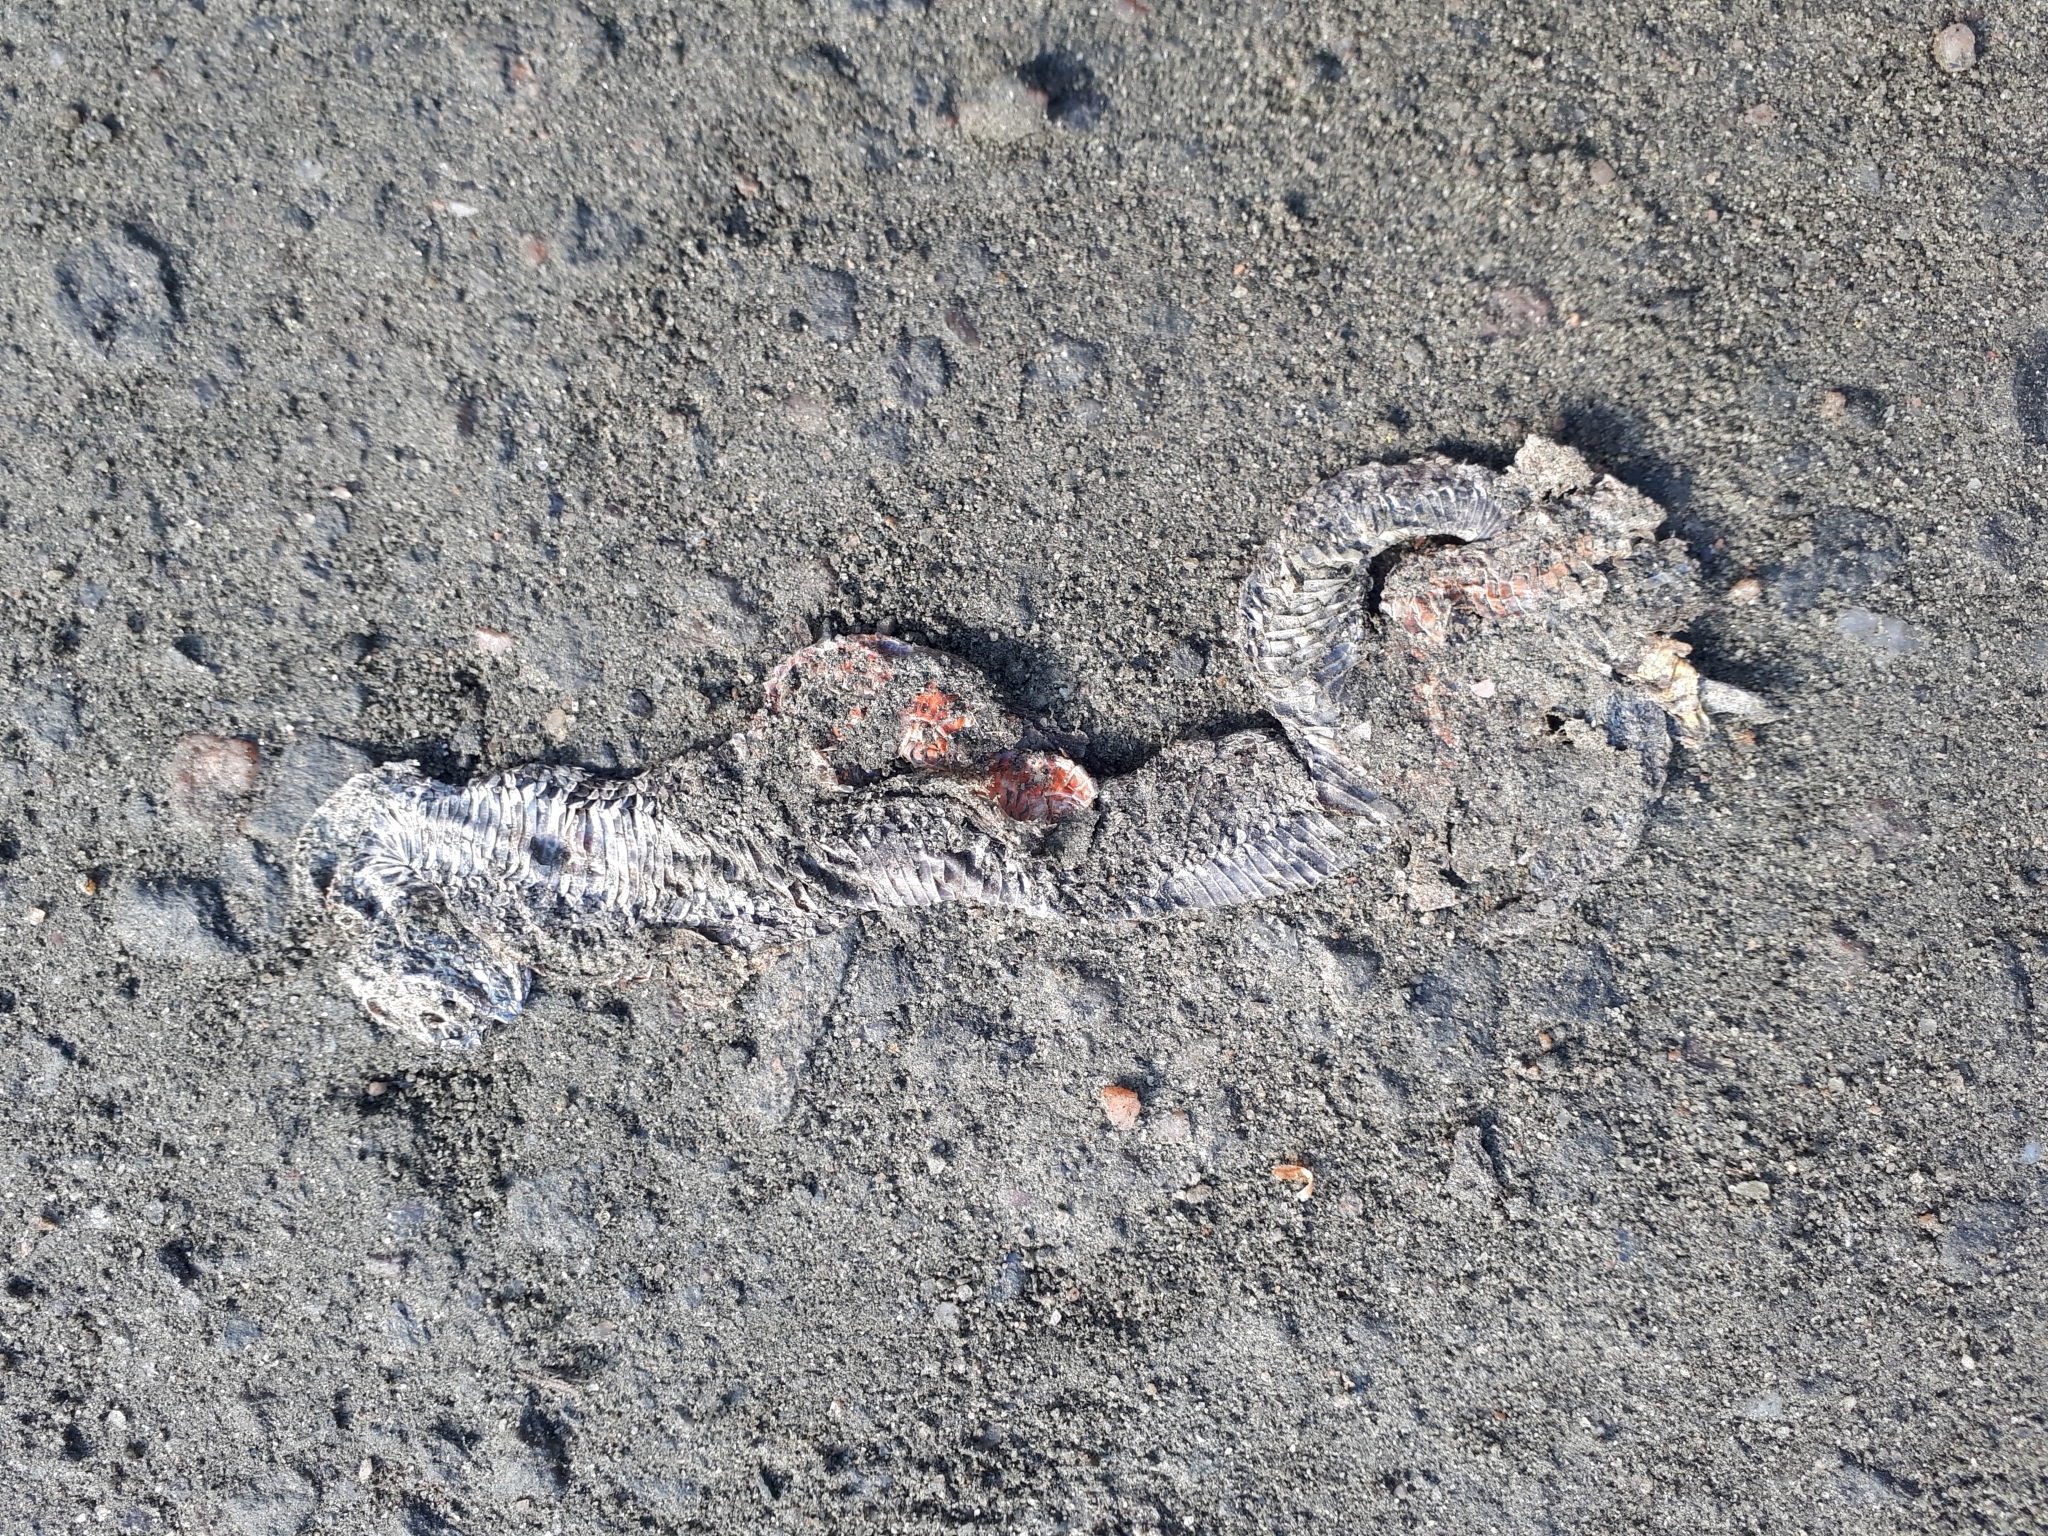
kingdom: Animalia
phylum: Chordata
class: Squamata
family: Viperidae
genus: Sistrurus
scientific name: Sistrurus catenatus
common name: Massasauga
